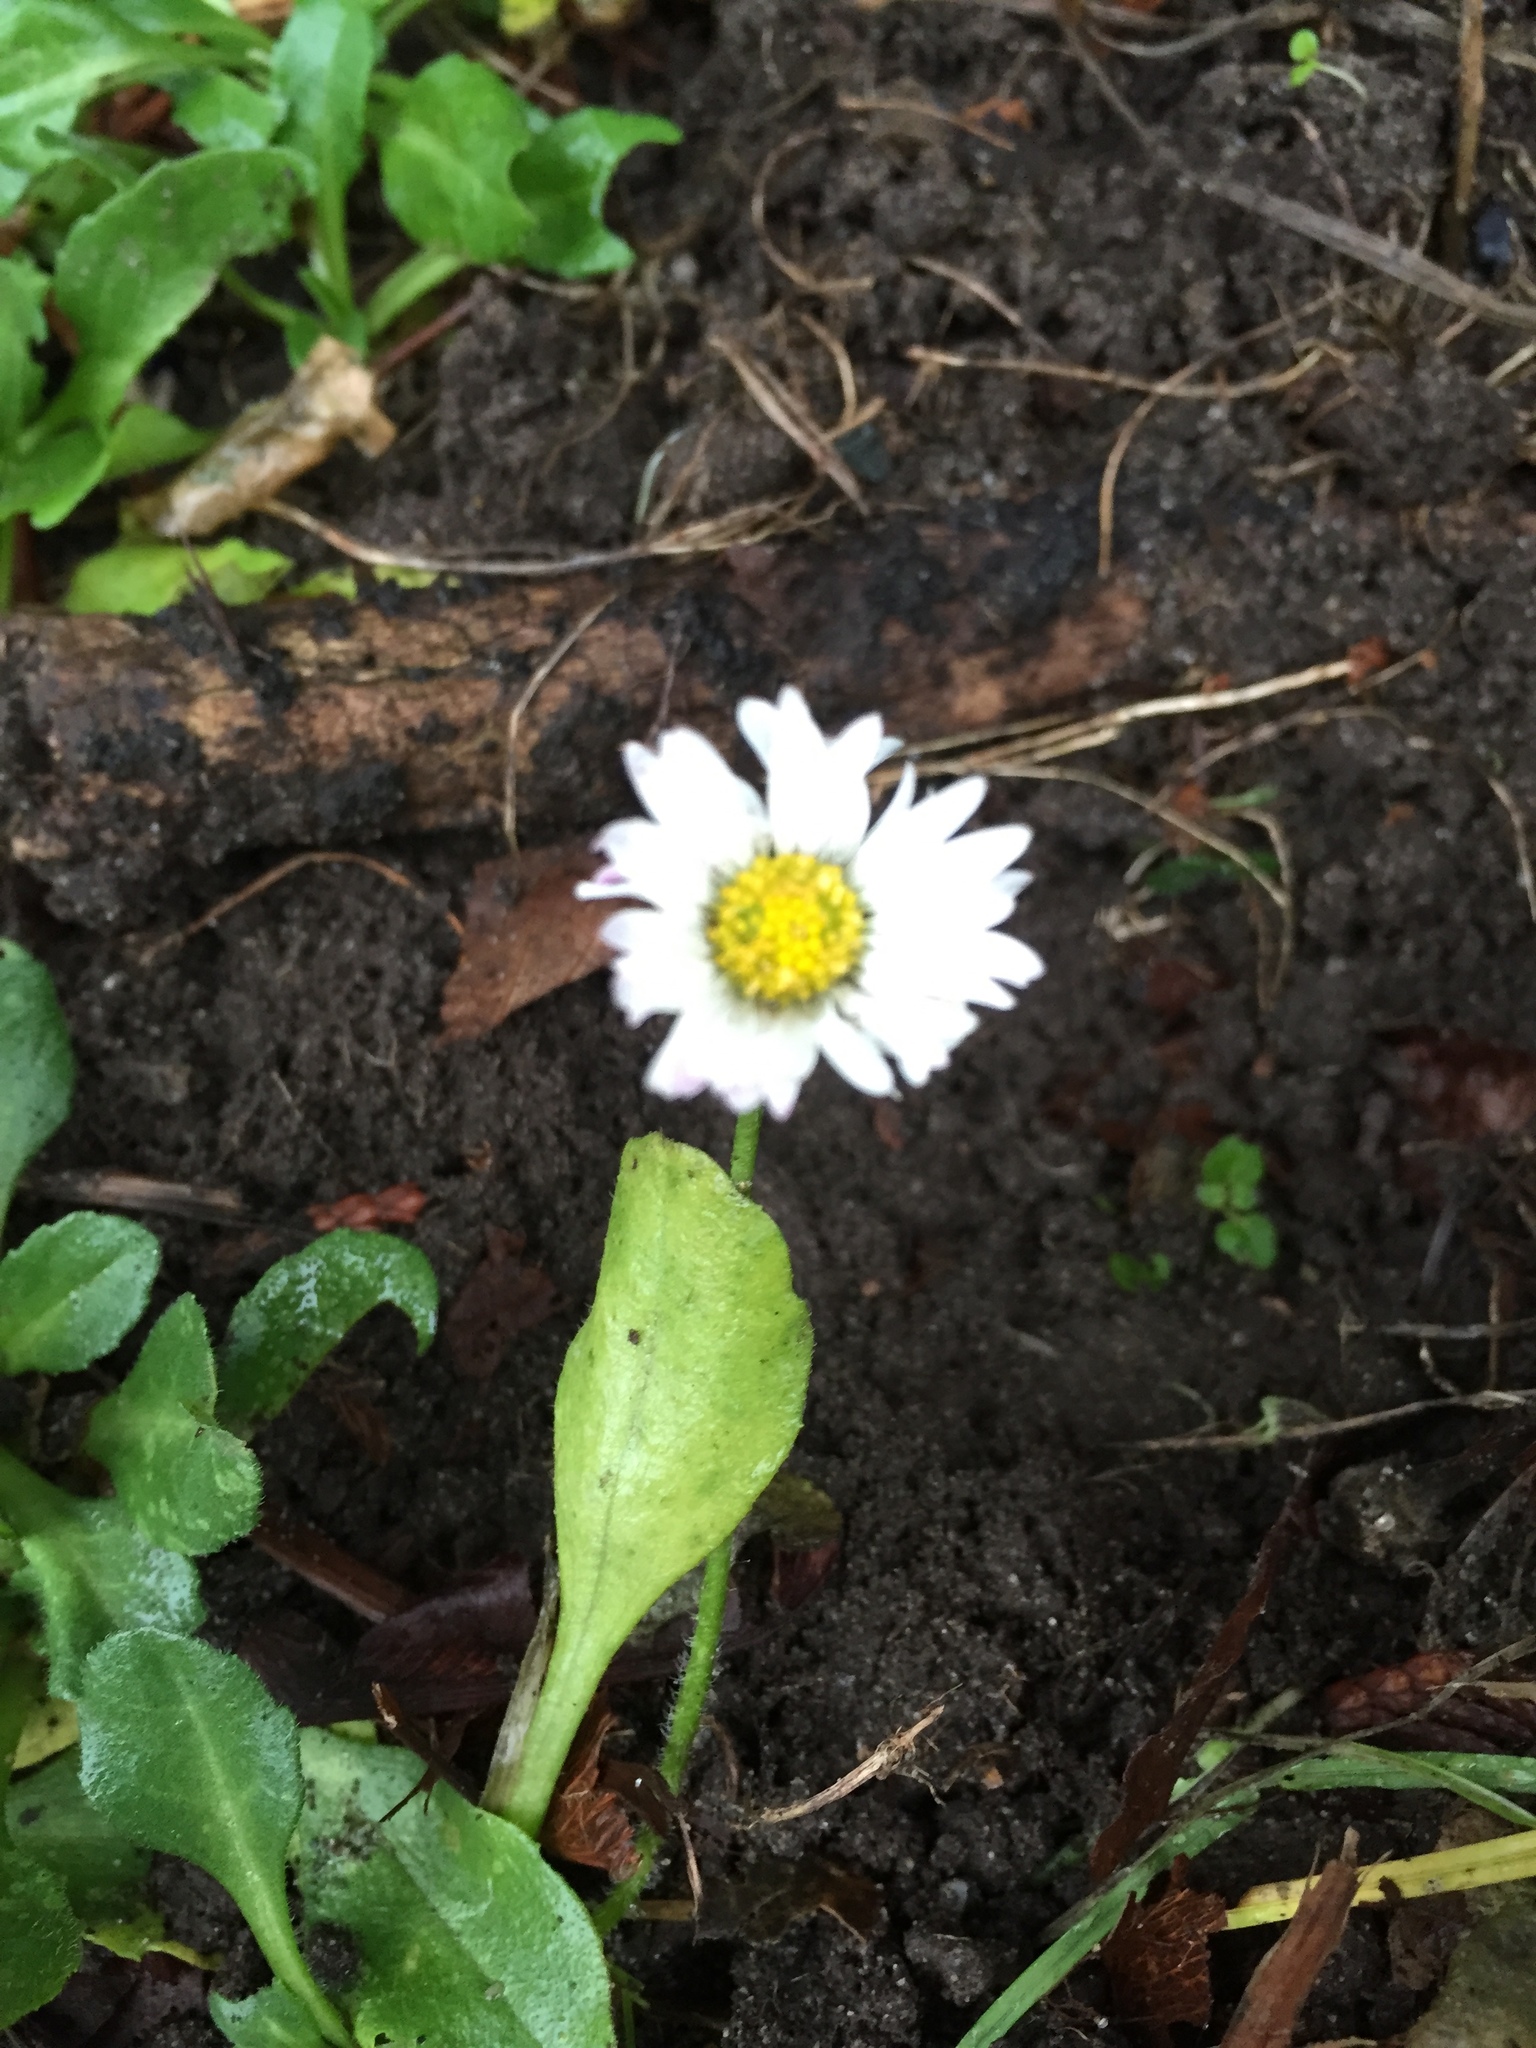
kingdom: Plantae
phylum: Tracheophyta
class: Magnoliopsida
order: Asterales
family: Asteraceae
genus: Bellis
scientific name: Bellis perennis
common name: Lawndaisy
